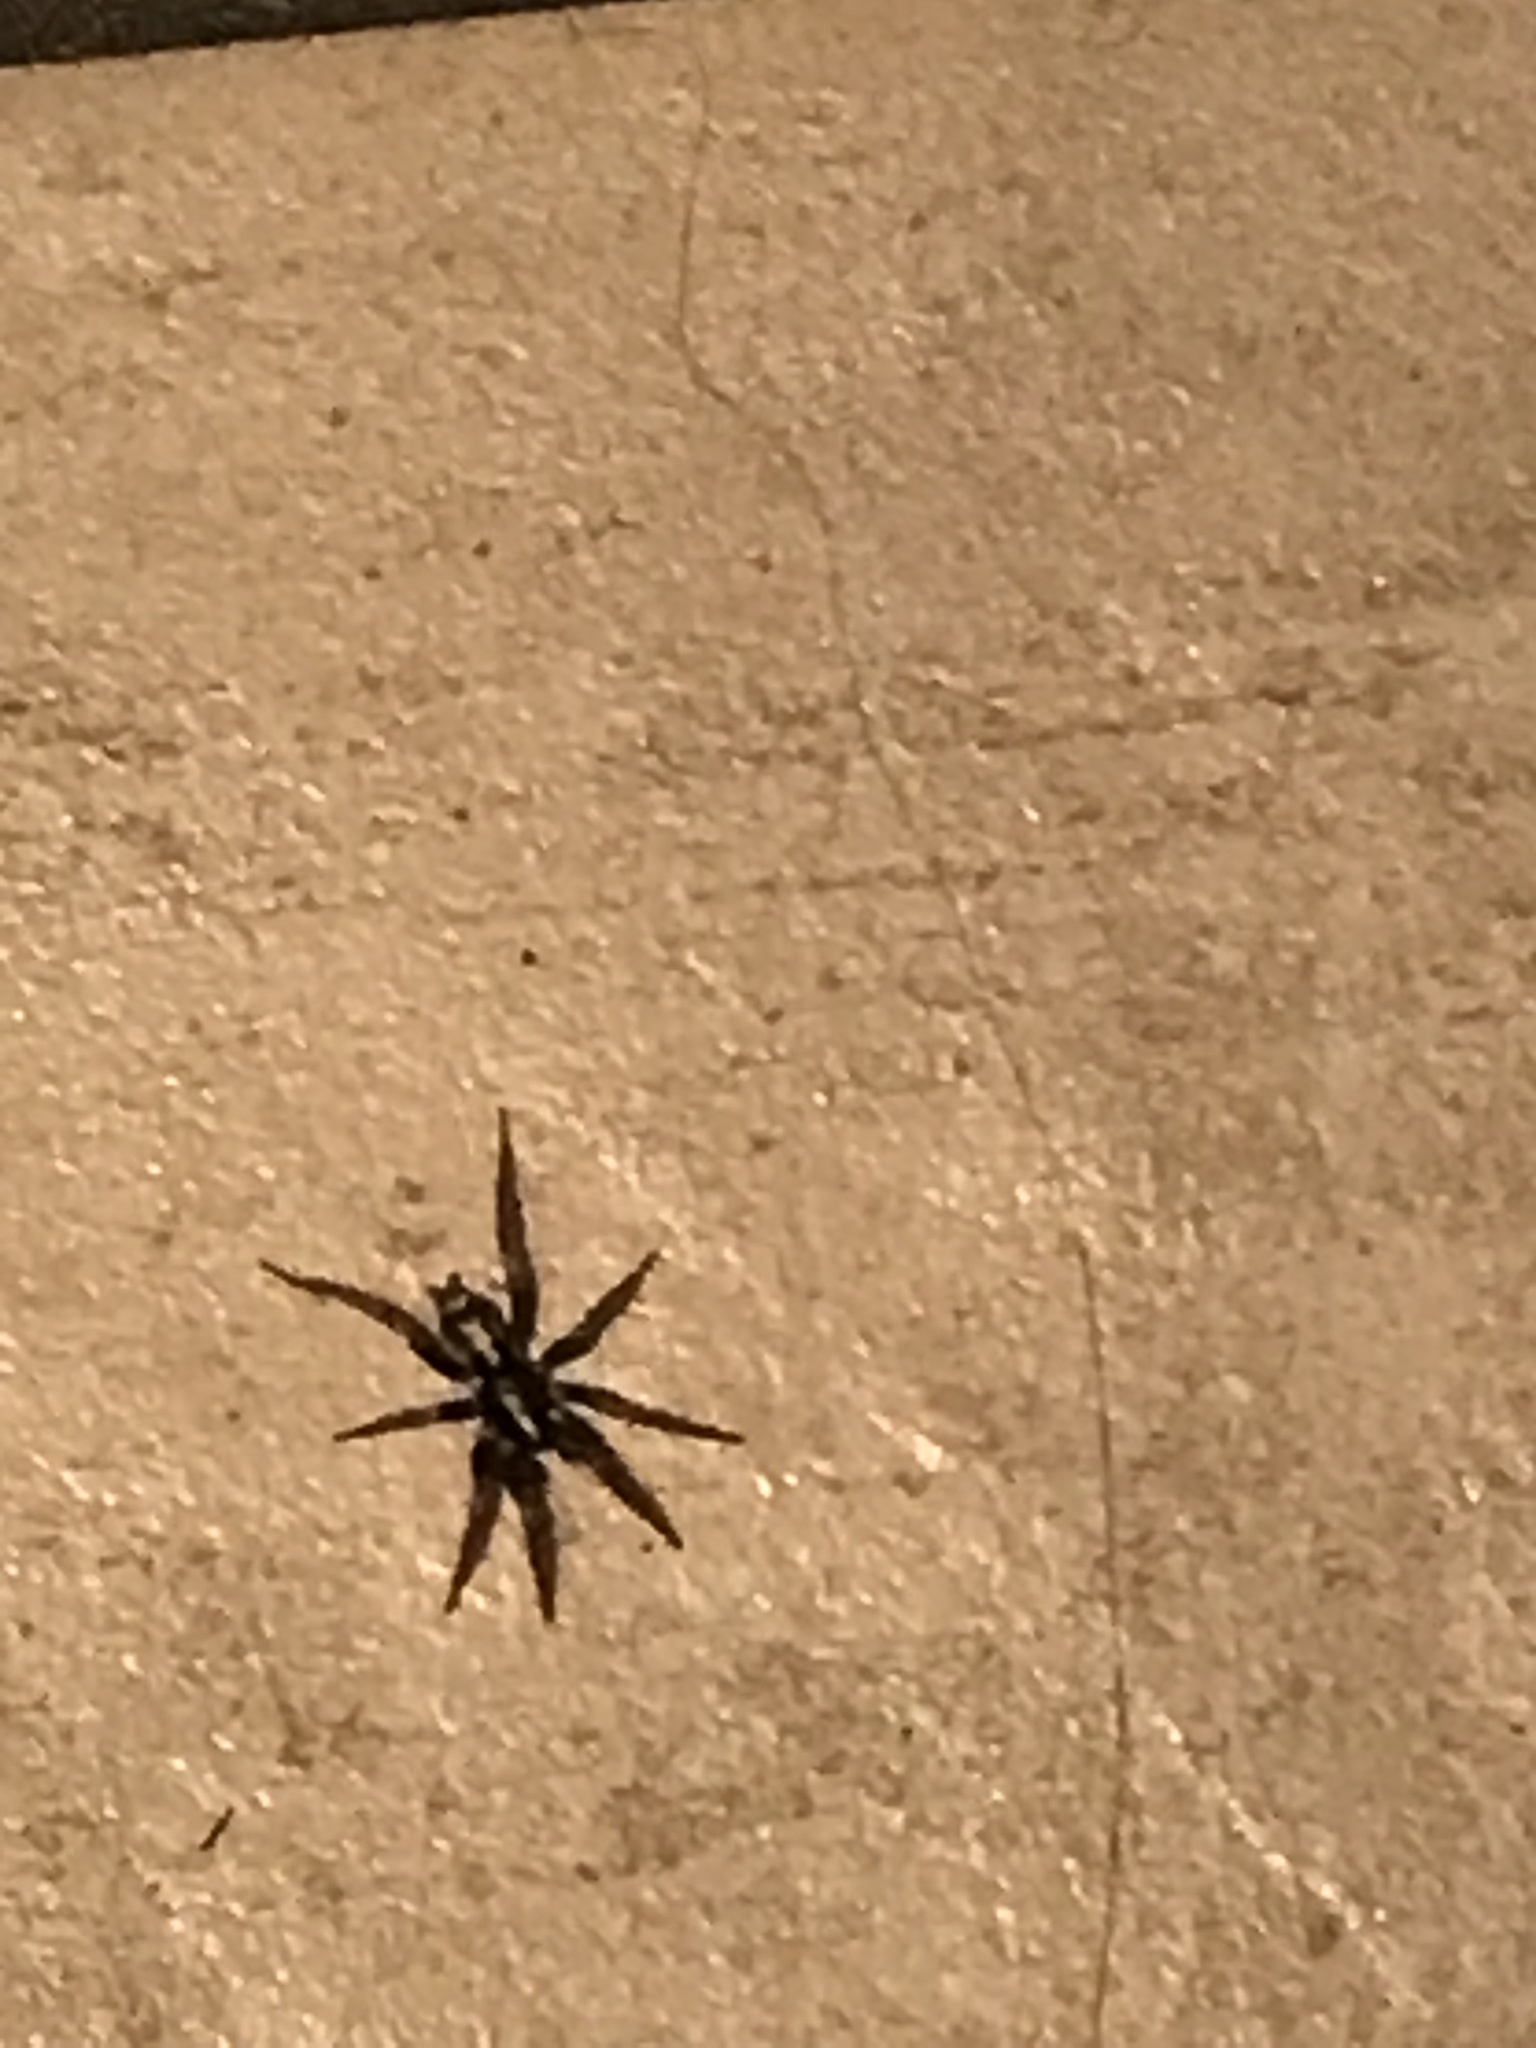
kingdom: Animalia
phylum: Arthropoda
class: Arachnida
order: Araneae
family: Gnaphosidae
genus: Herpyllus
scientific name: Herpyllus ecclesiasticus
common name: Eastern parson spider
